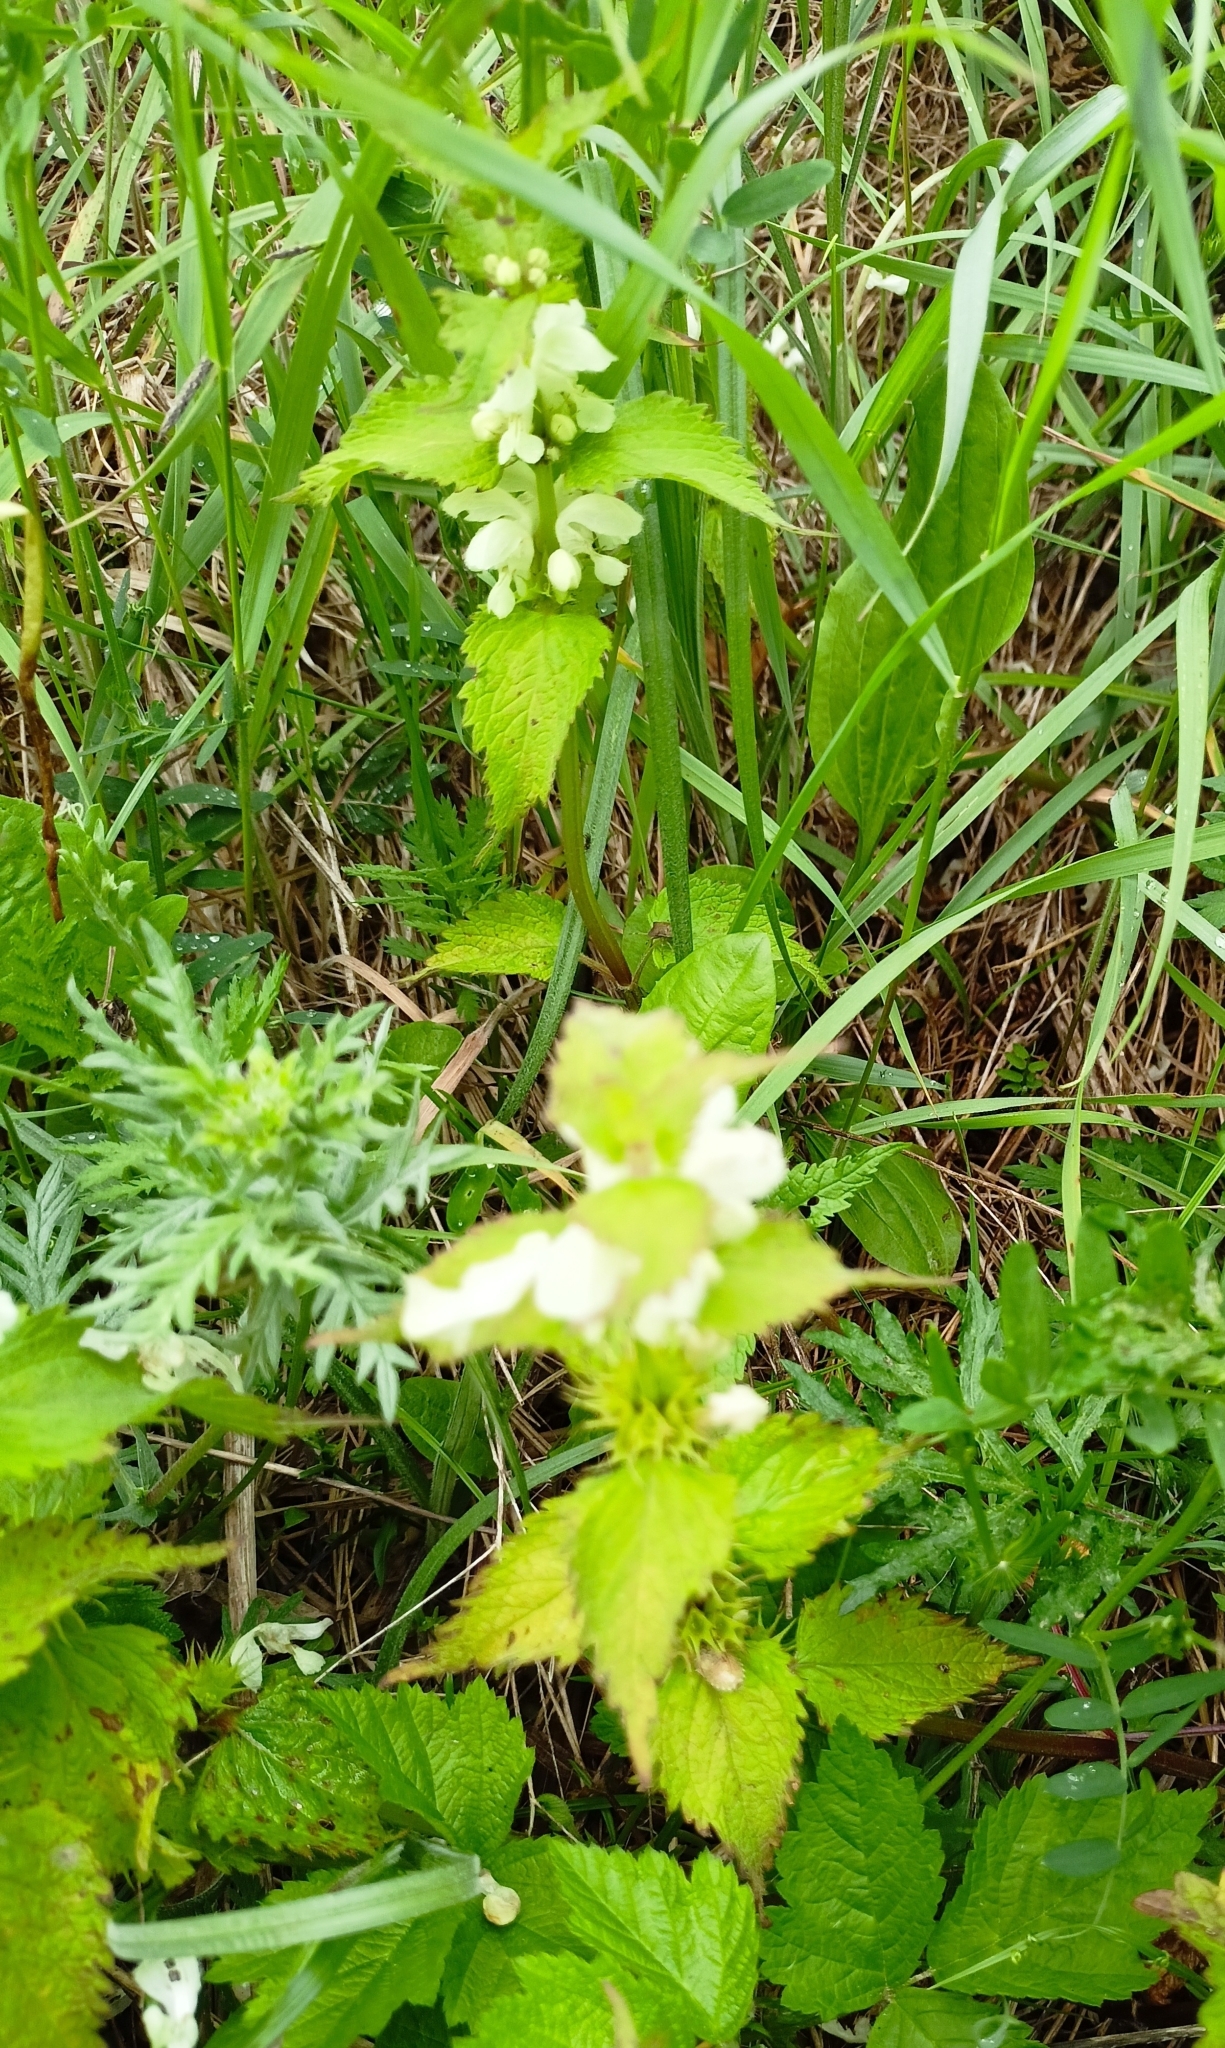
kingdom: Plantae
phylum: Tracheophyta
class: Magnoliopsida
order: Lamiales
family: Lamiaceae
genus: Lamium
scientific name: Lamium album
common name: White dead-nettle
